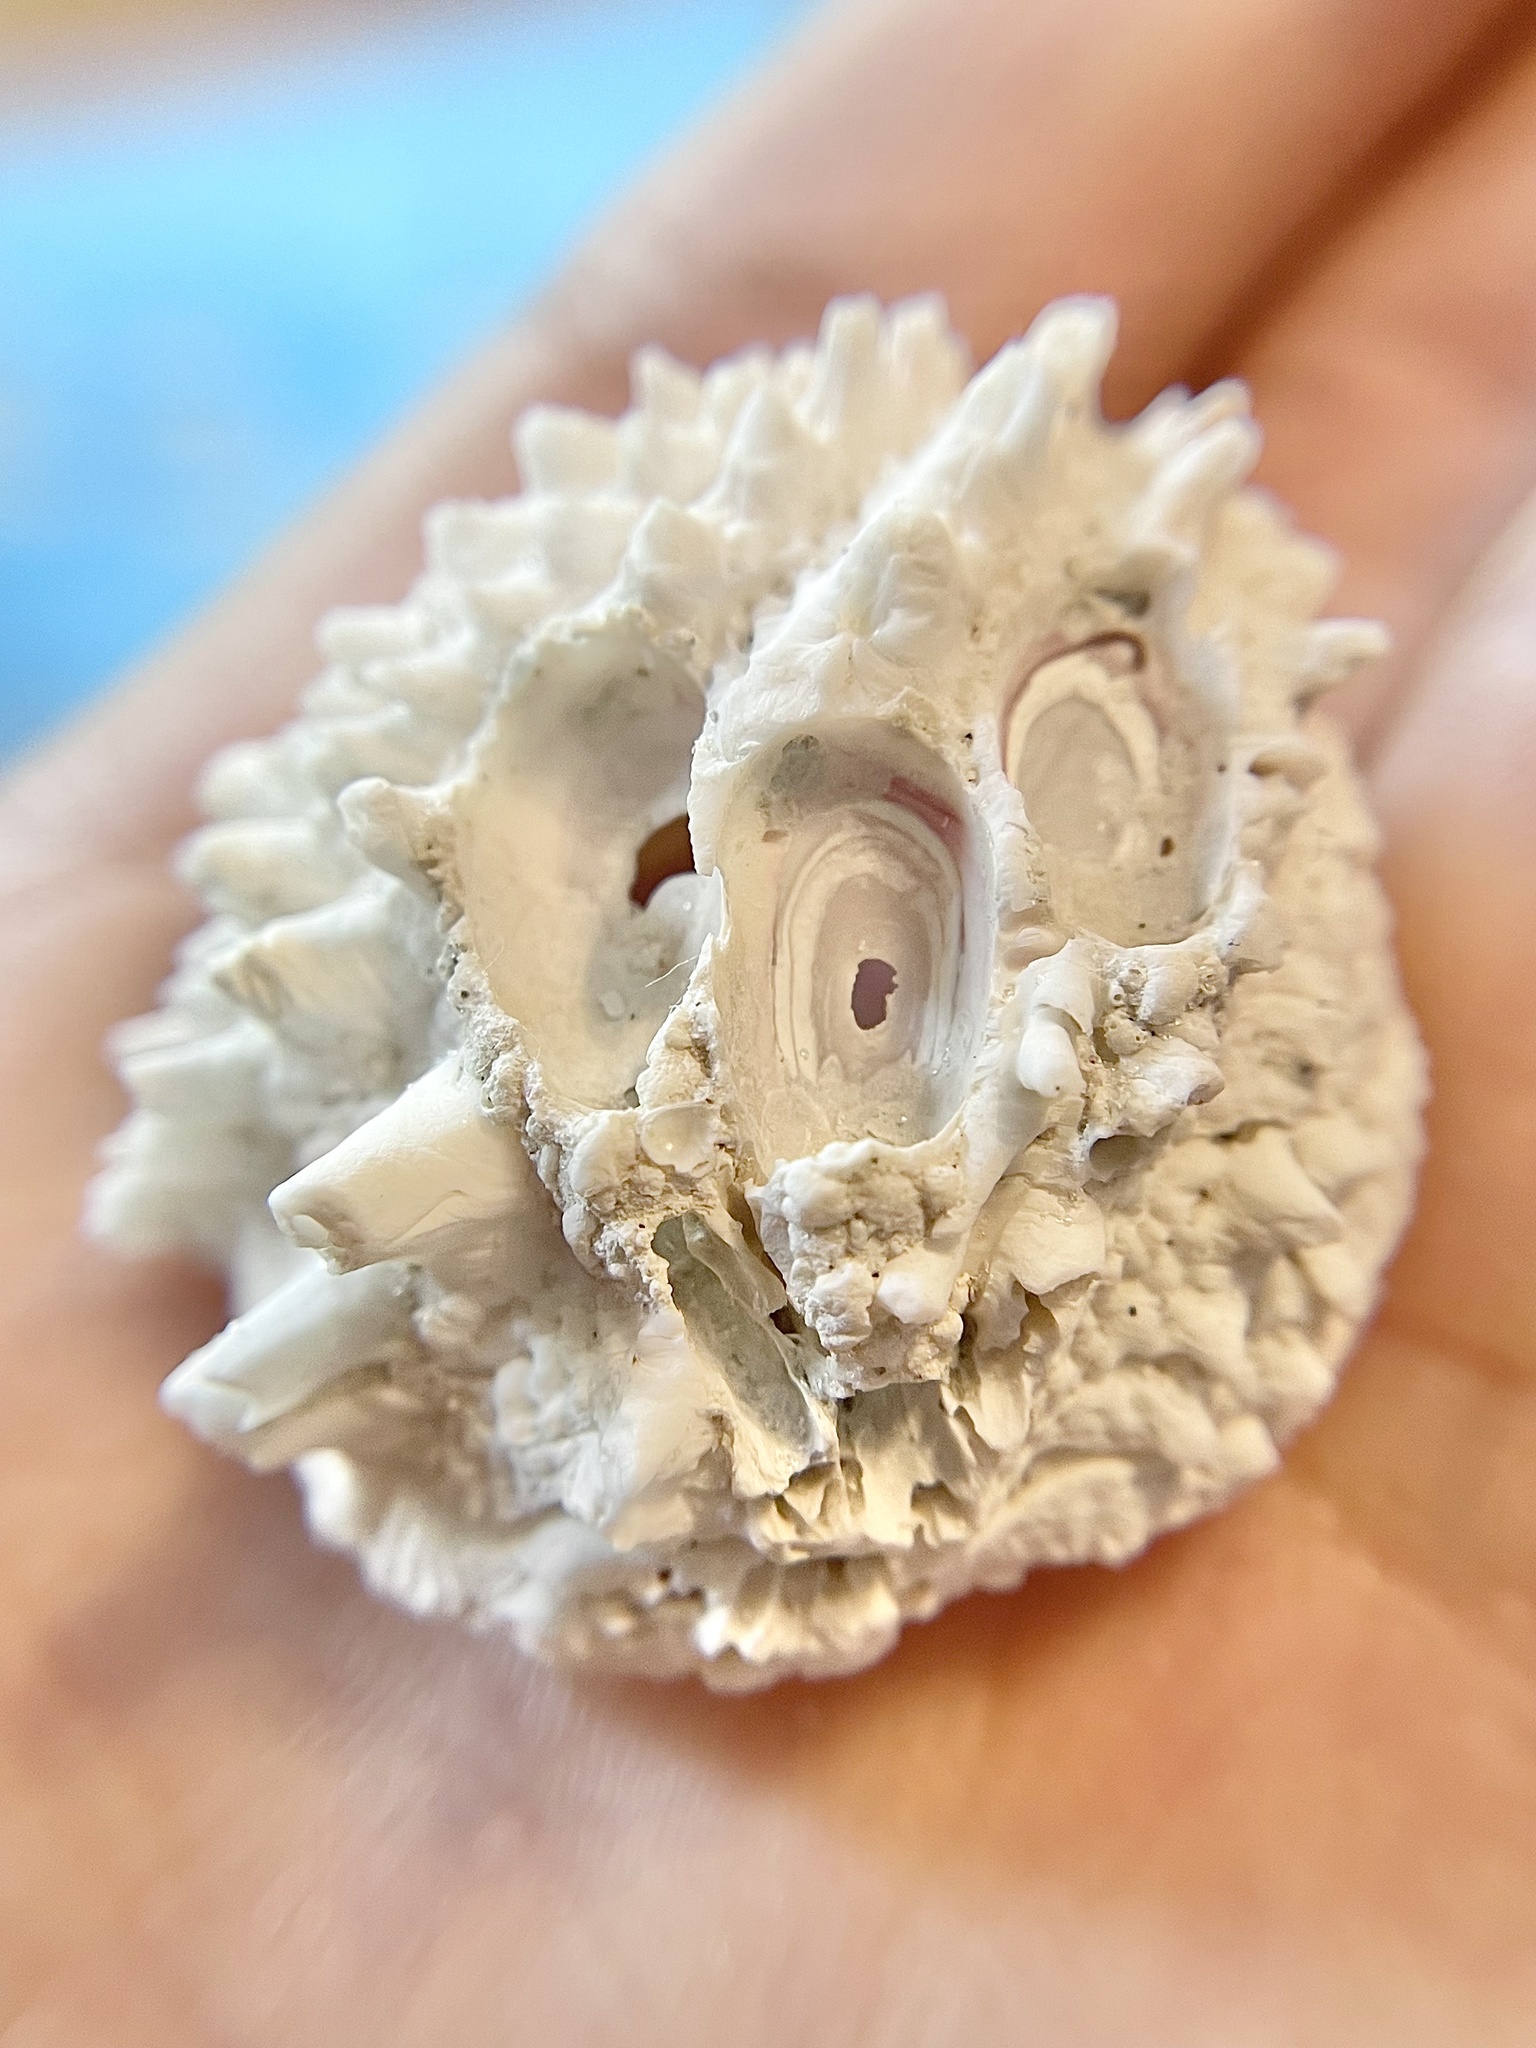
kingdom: Animalia
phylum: Mollusca
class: Bivalvia
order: Gastrochaenida
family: Gastrochaenidae
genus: Rocellaria
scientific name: Rocellaria stimpsonii
